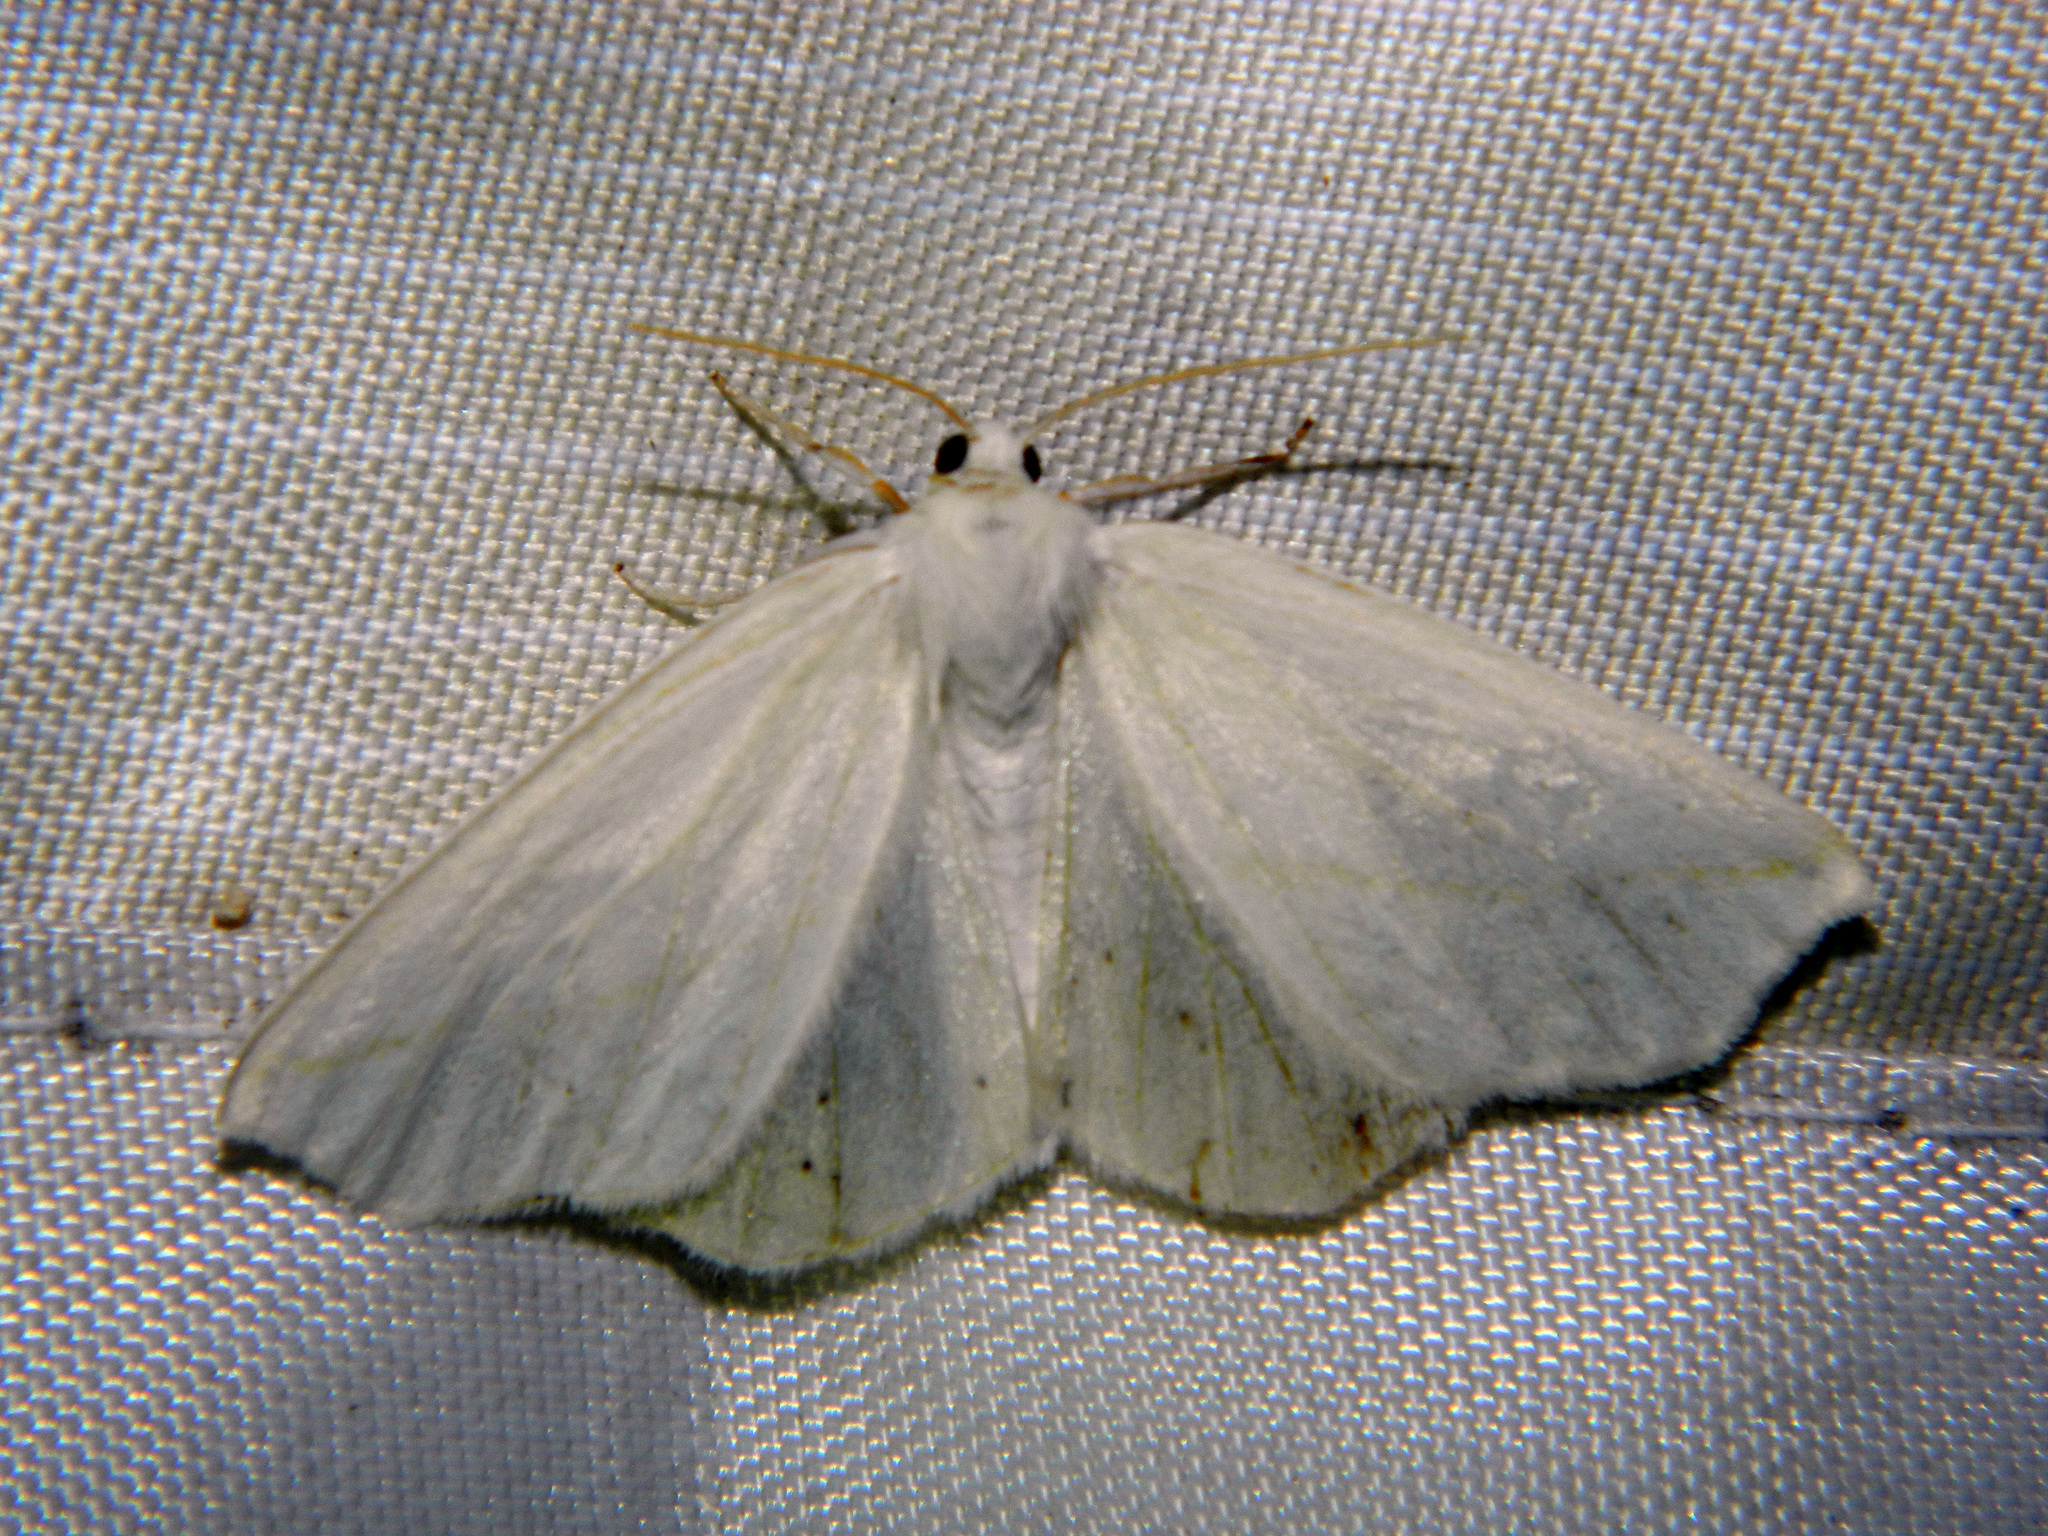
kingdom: Animalia
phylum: Arthropoda
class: Insecta
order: Lepidoptera
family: Geometridae
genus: Tetracis
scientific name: Tetracis cachexiata
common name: White slant-line
